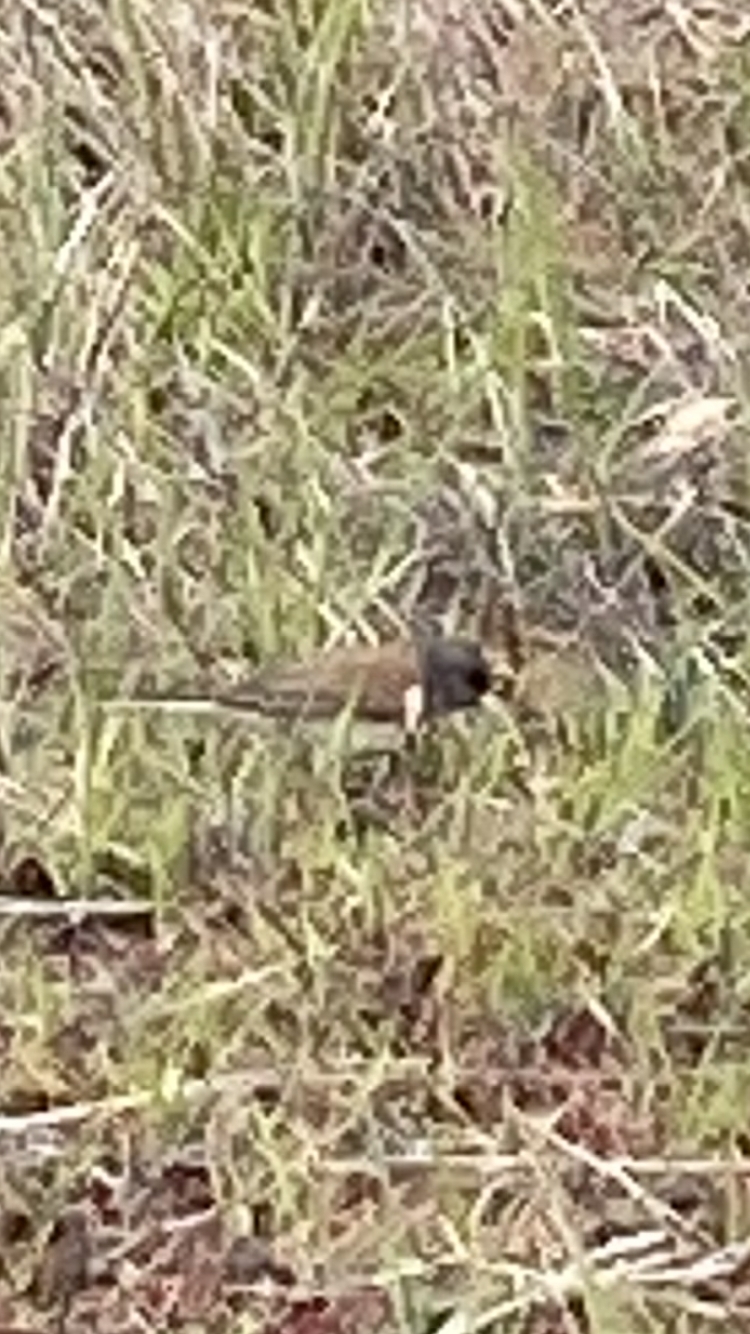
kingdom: Animalia
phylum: Chordata
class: Aves
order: Passeriformes
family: Passerellidae
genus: Junco
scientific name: Junco hyemalis
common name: Dark-eyed junco
